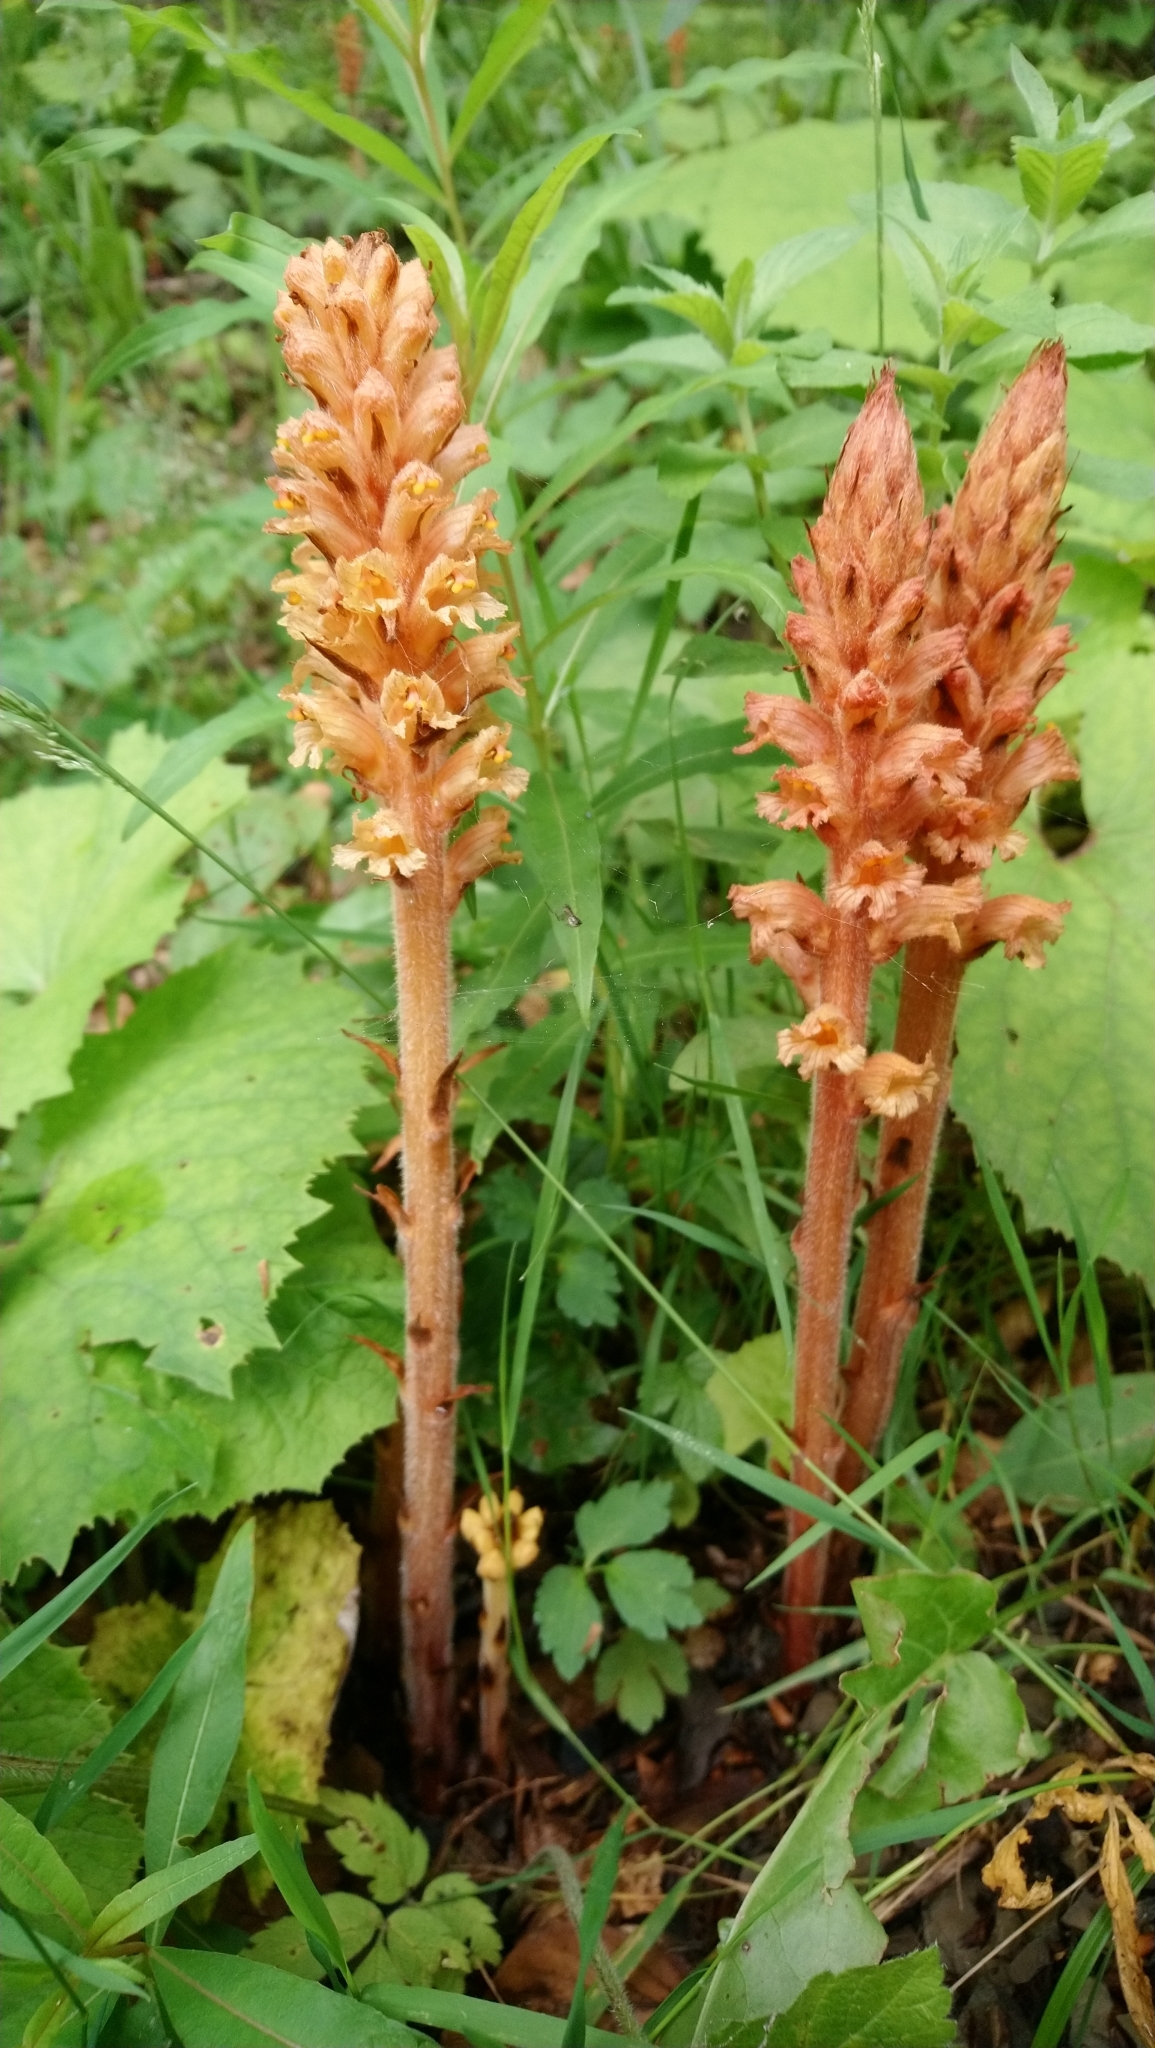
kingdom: Plantae
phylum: Tracheophyta
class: Magnoliopsida
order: Lamiales
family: Orobanchaceae
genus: Orobanche
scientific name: Orobanche flava
